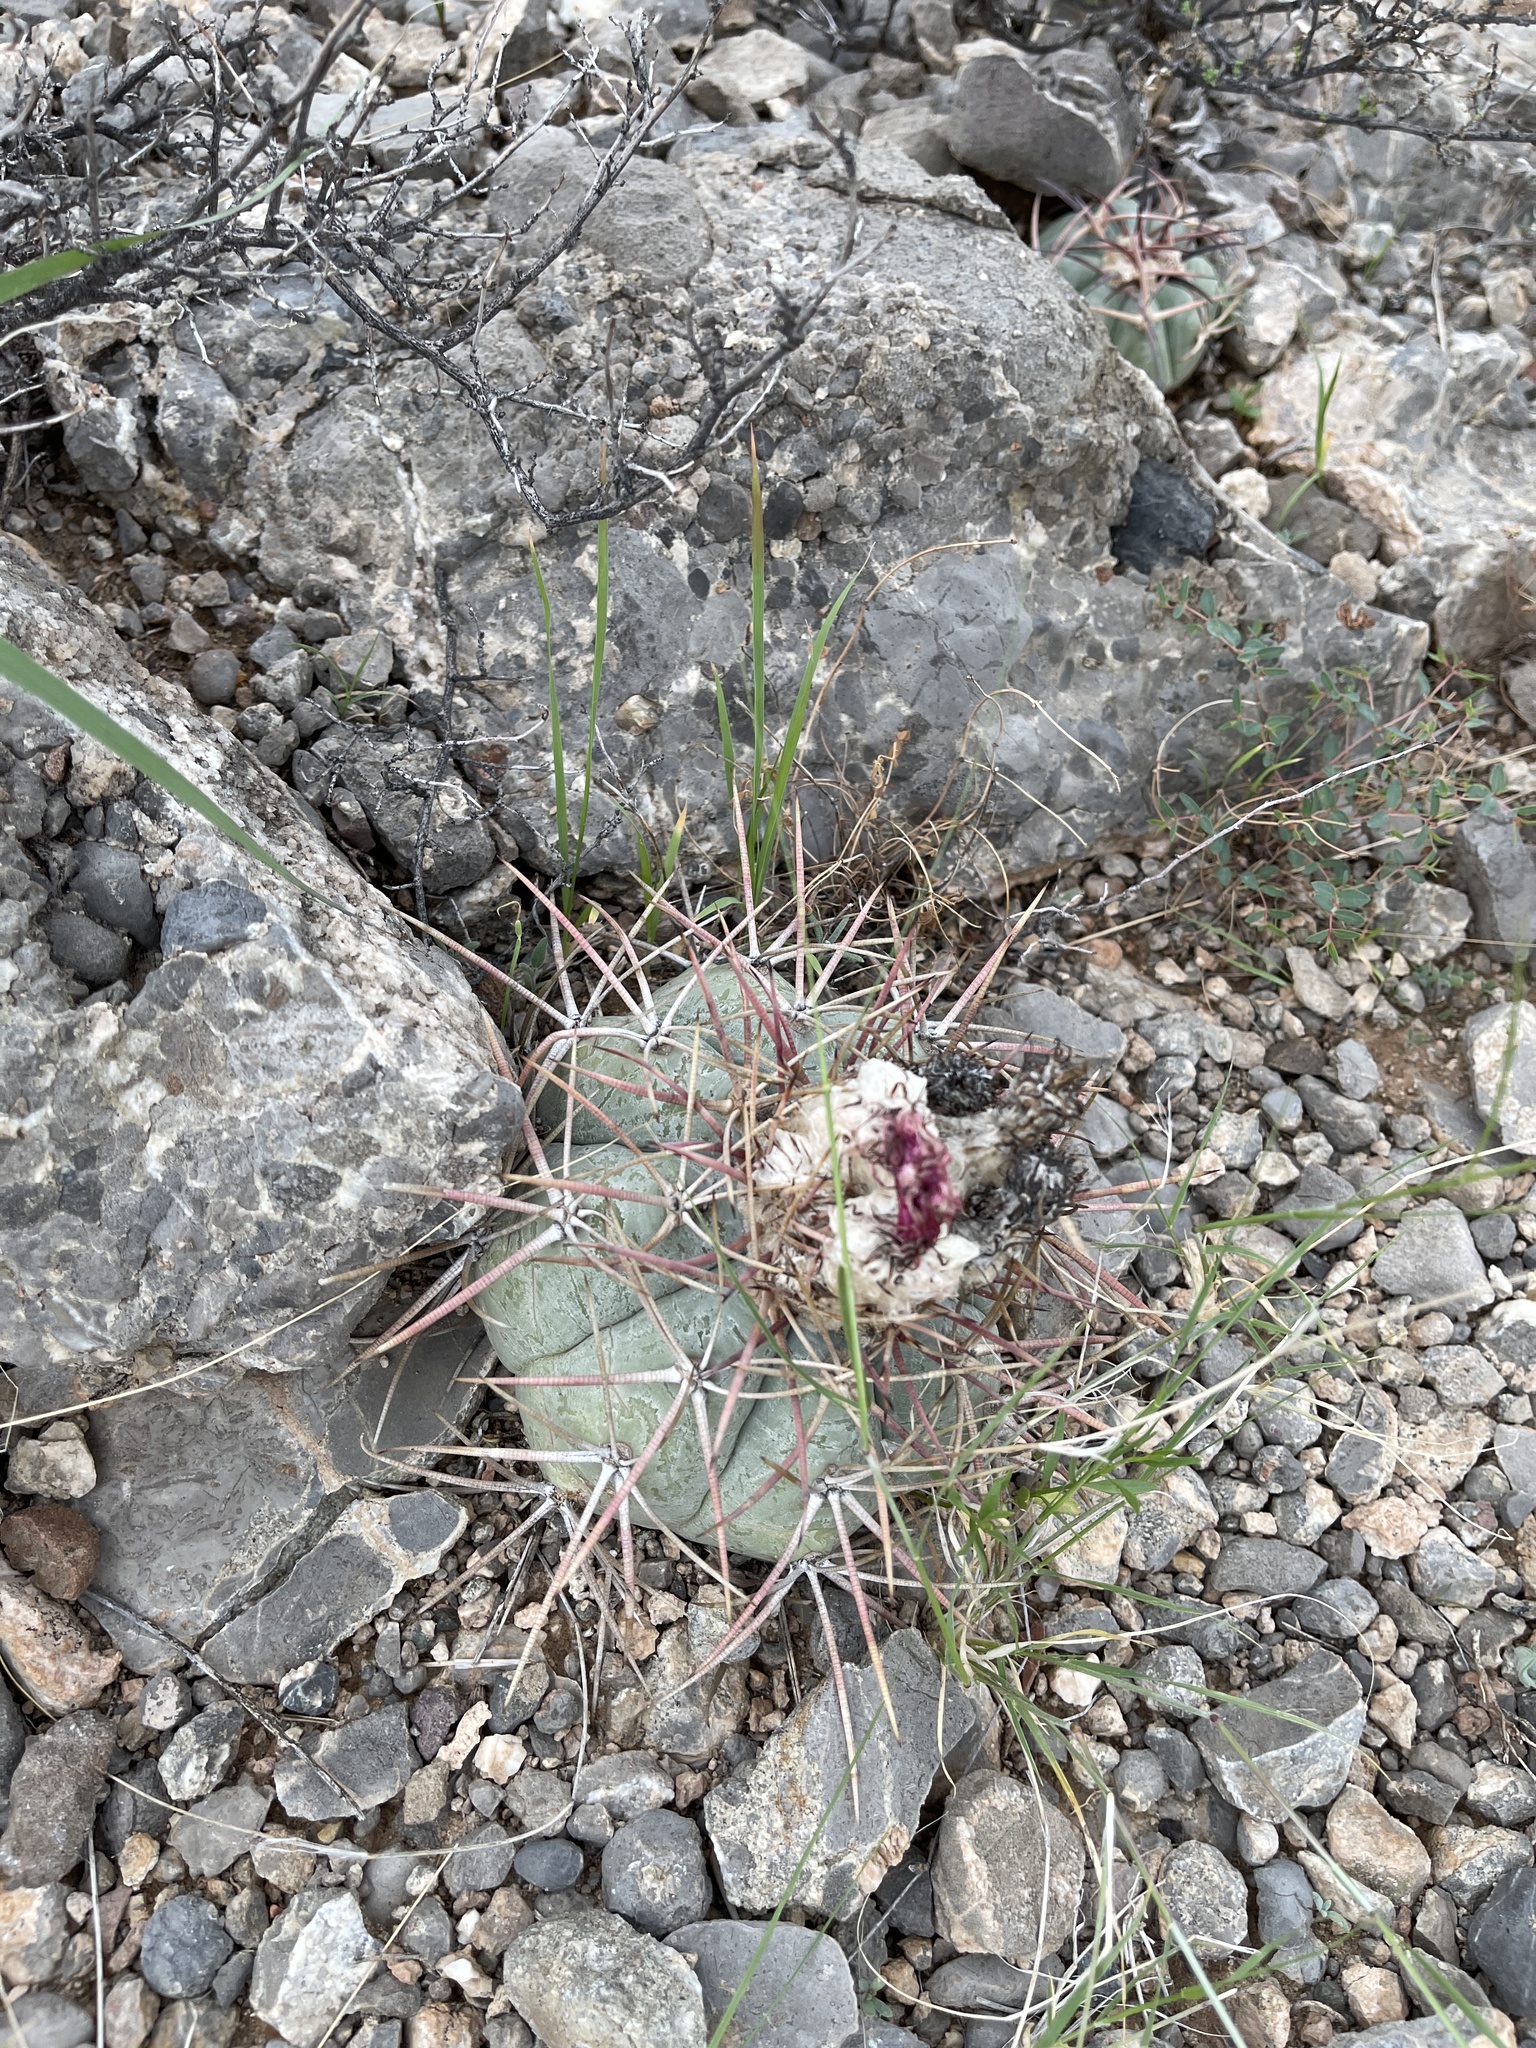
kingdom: Plantae
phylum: Tracheophyta
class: Magnoliopsida
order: Caryophyllales
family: Cactaceae
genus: Echinocactus
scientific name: Echinocactus horizonthalonius
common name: Devilshead
